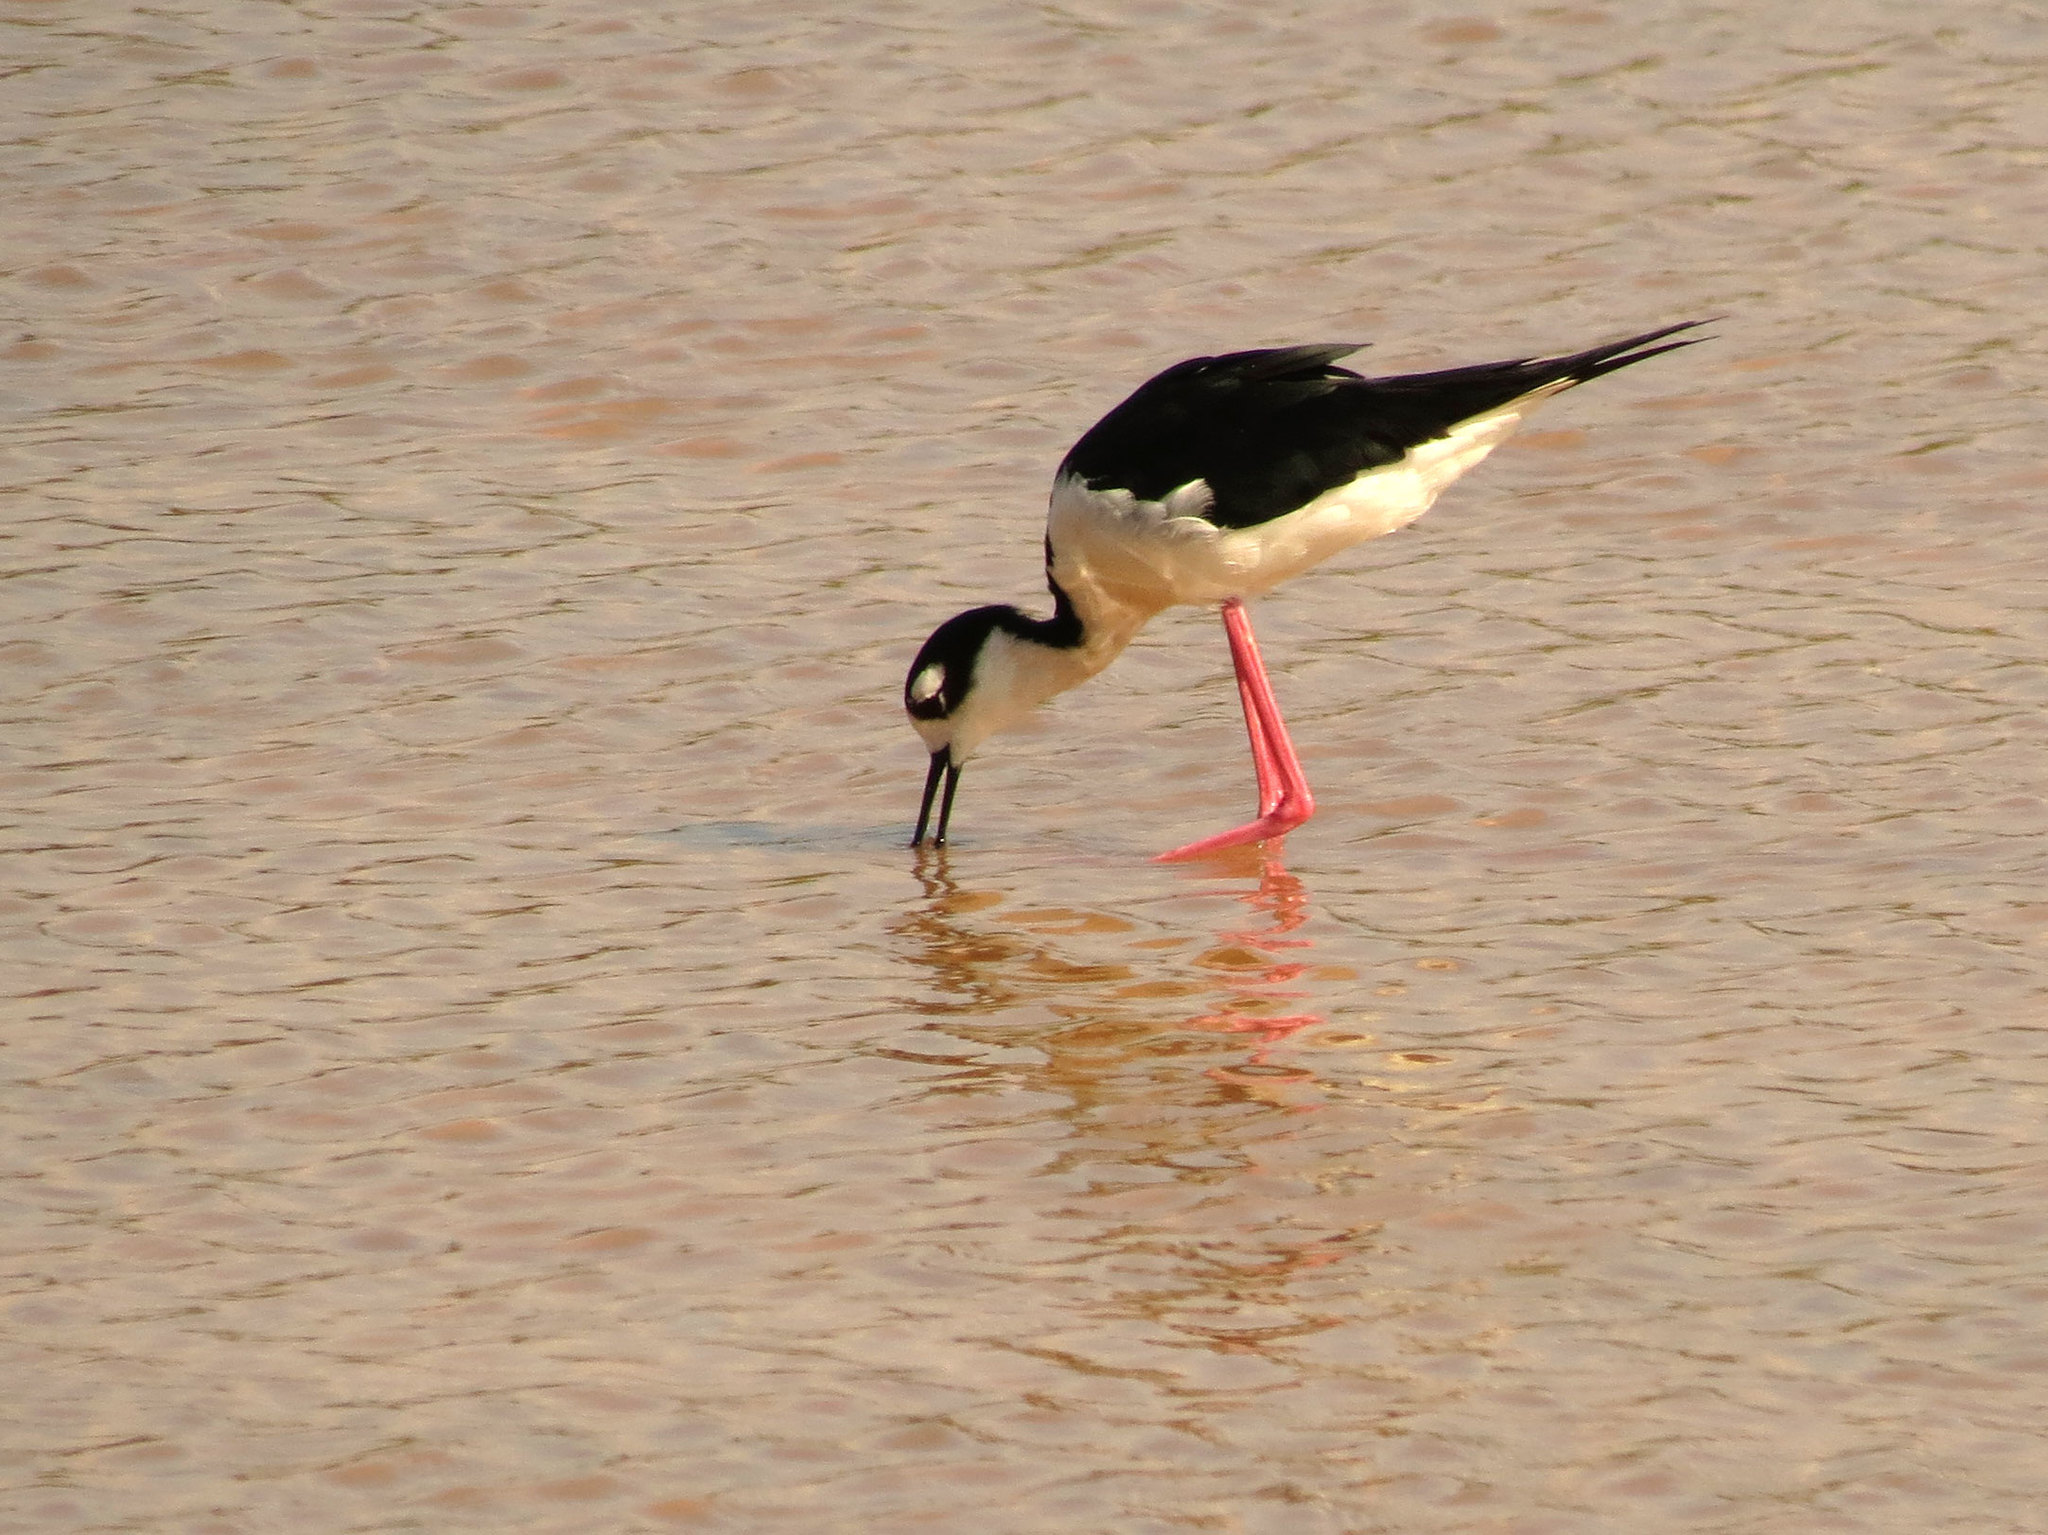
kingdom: Animalia
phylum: Chordata
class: Aves
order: Charadriiformes
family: Recurvirostridae
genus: Himantopus
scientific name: Himantopus mexicanus
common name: Black-necked stilt
